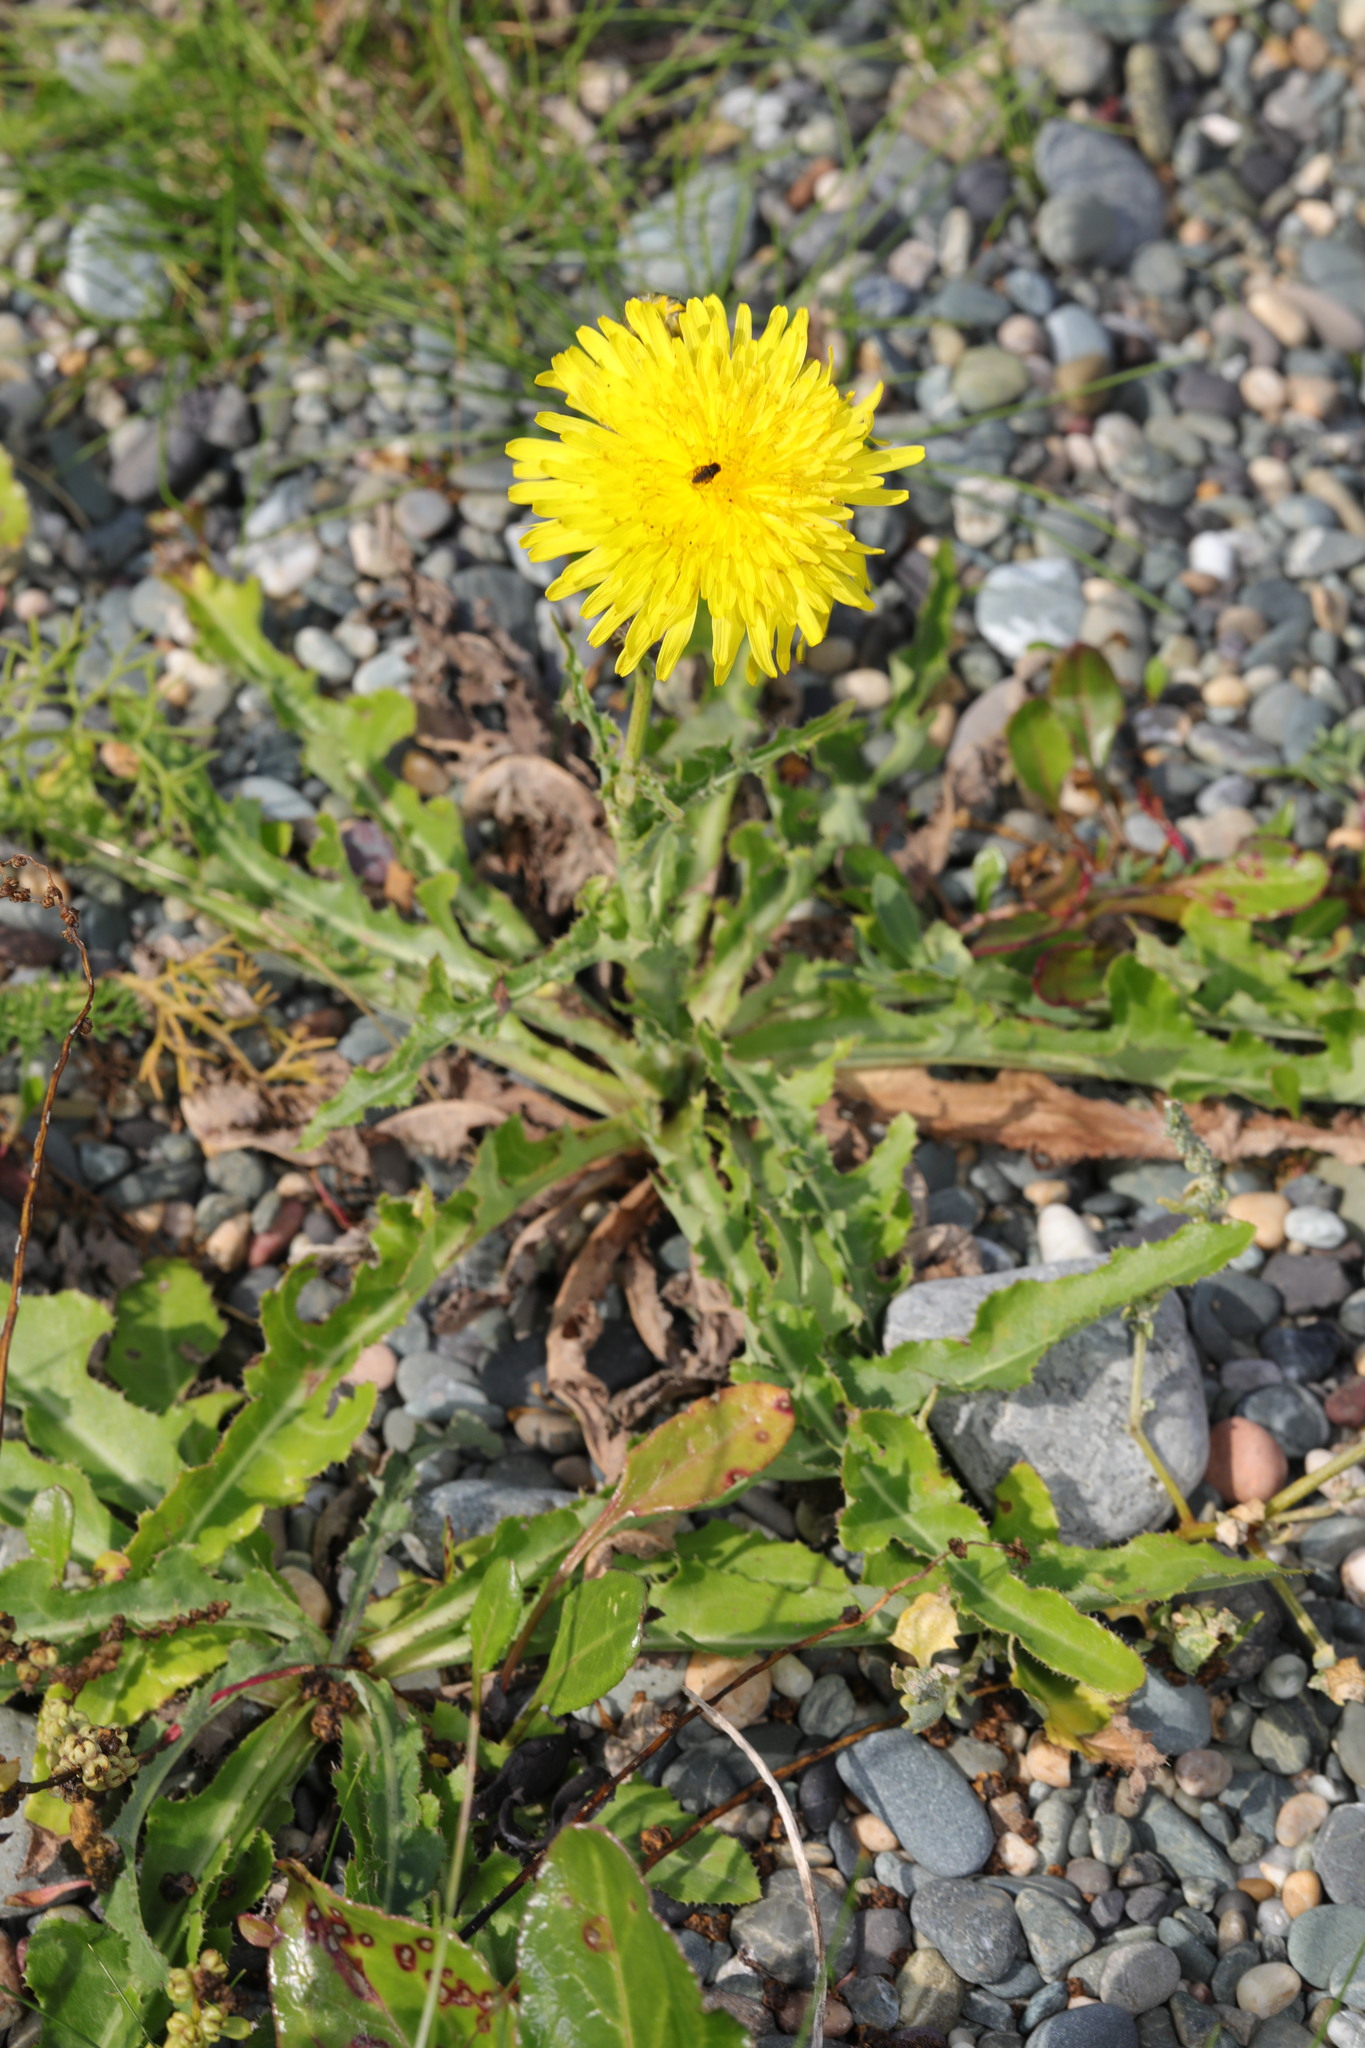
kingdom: Plantae
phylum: Tracheophyta
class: Magnoliopsida
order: Asterales
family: Asteraceae
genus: Taraxacum
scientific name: Taraxacum officinale
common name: Common dandelion
